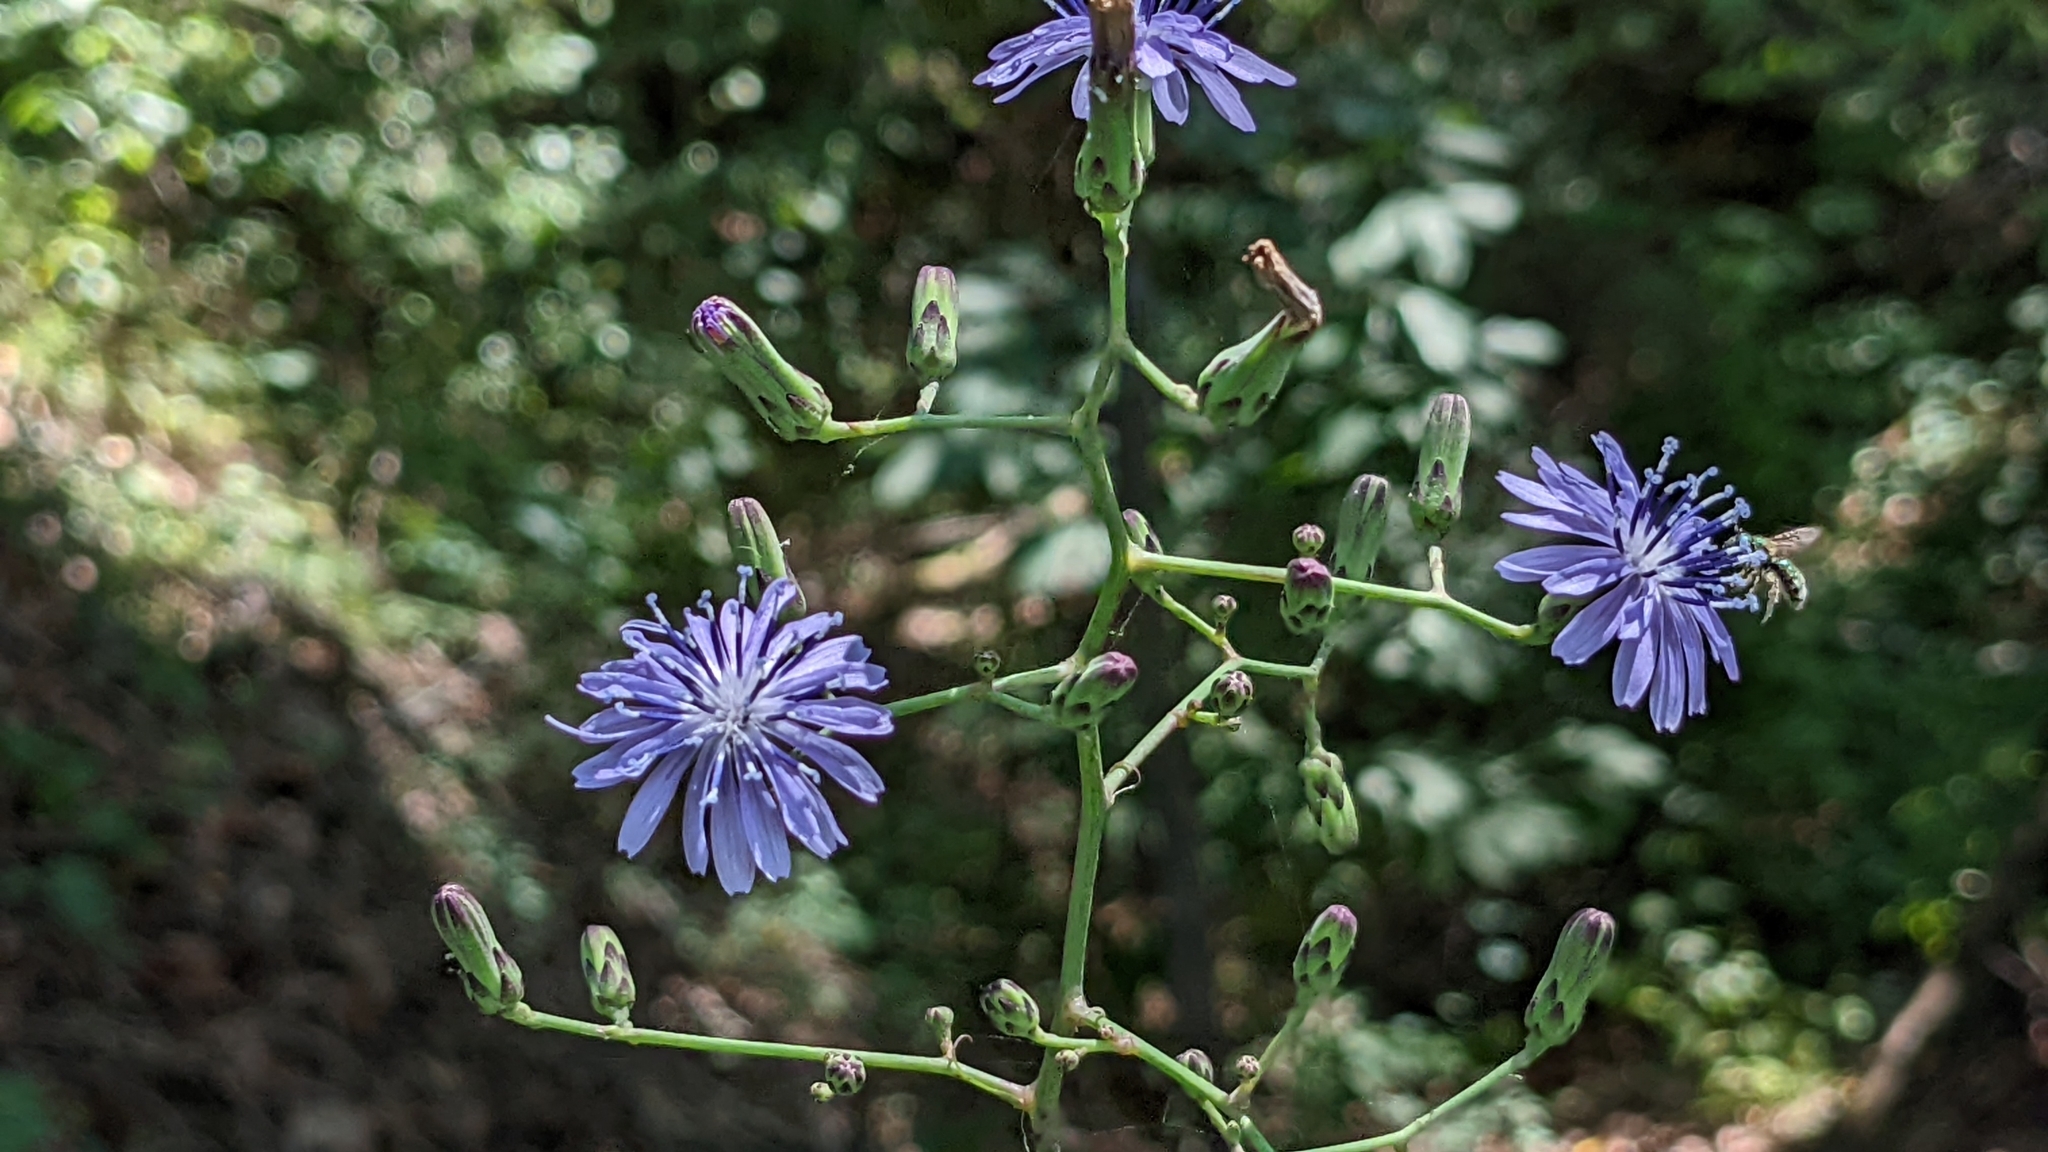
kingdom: Plantae
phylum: Tracheophyta
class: Magnoliopsida
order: Asterales
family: Asteraceae
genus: Lactuca
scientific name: Lactuca floridana
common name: Woodland lettuce
